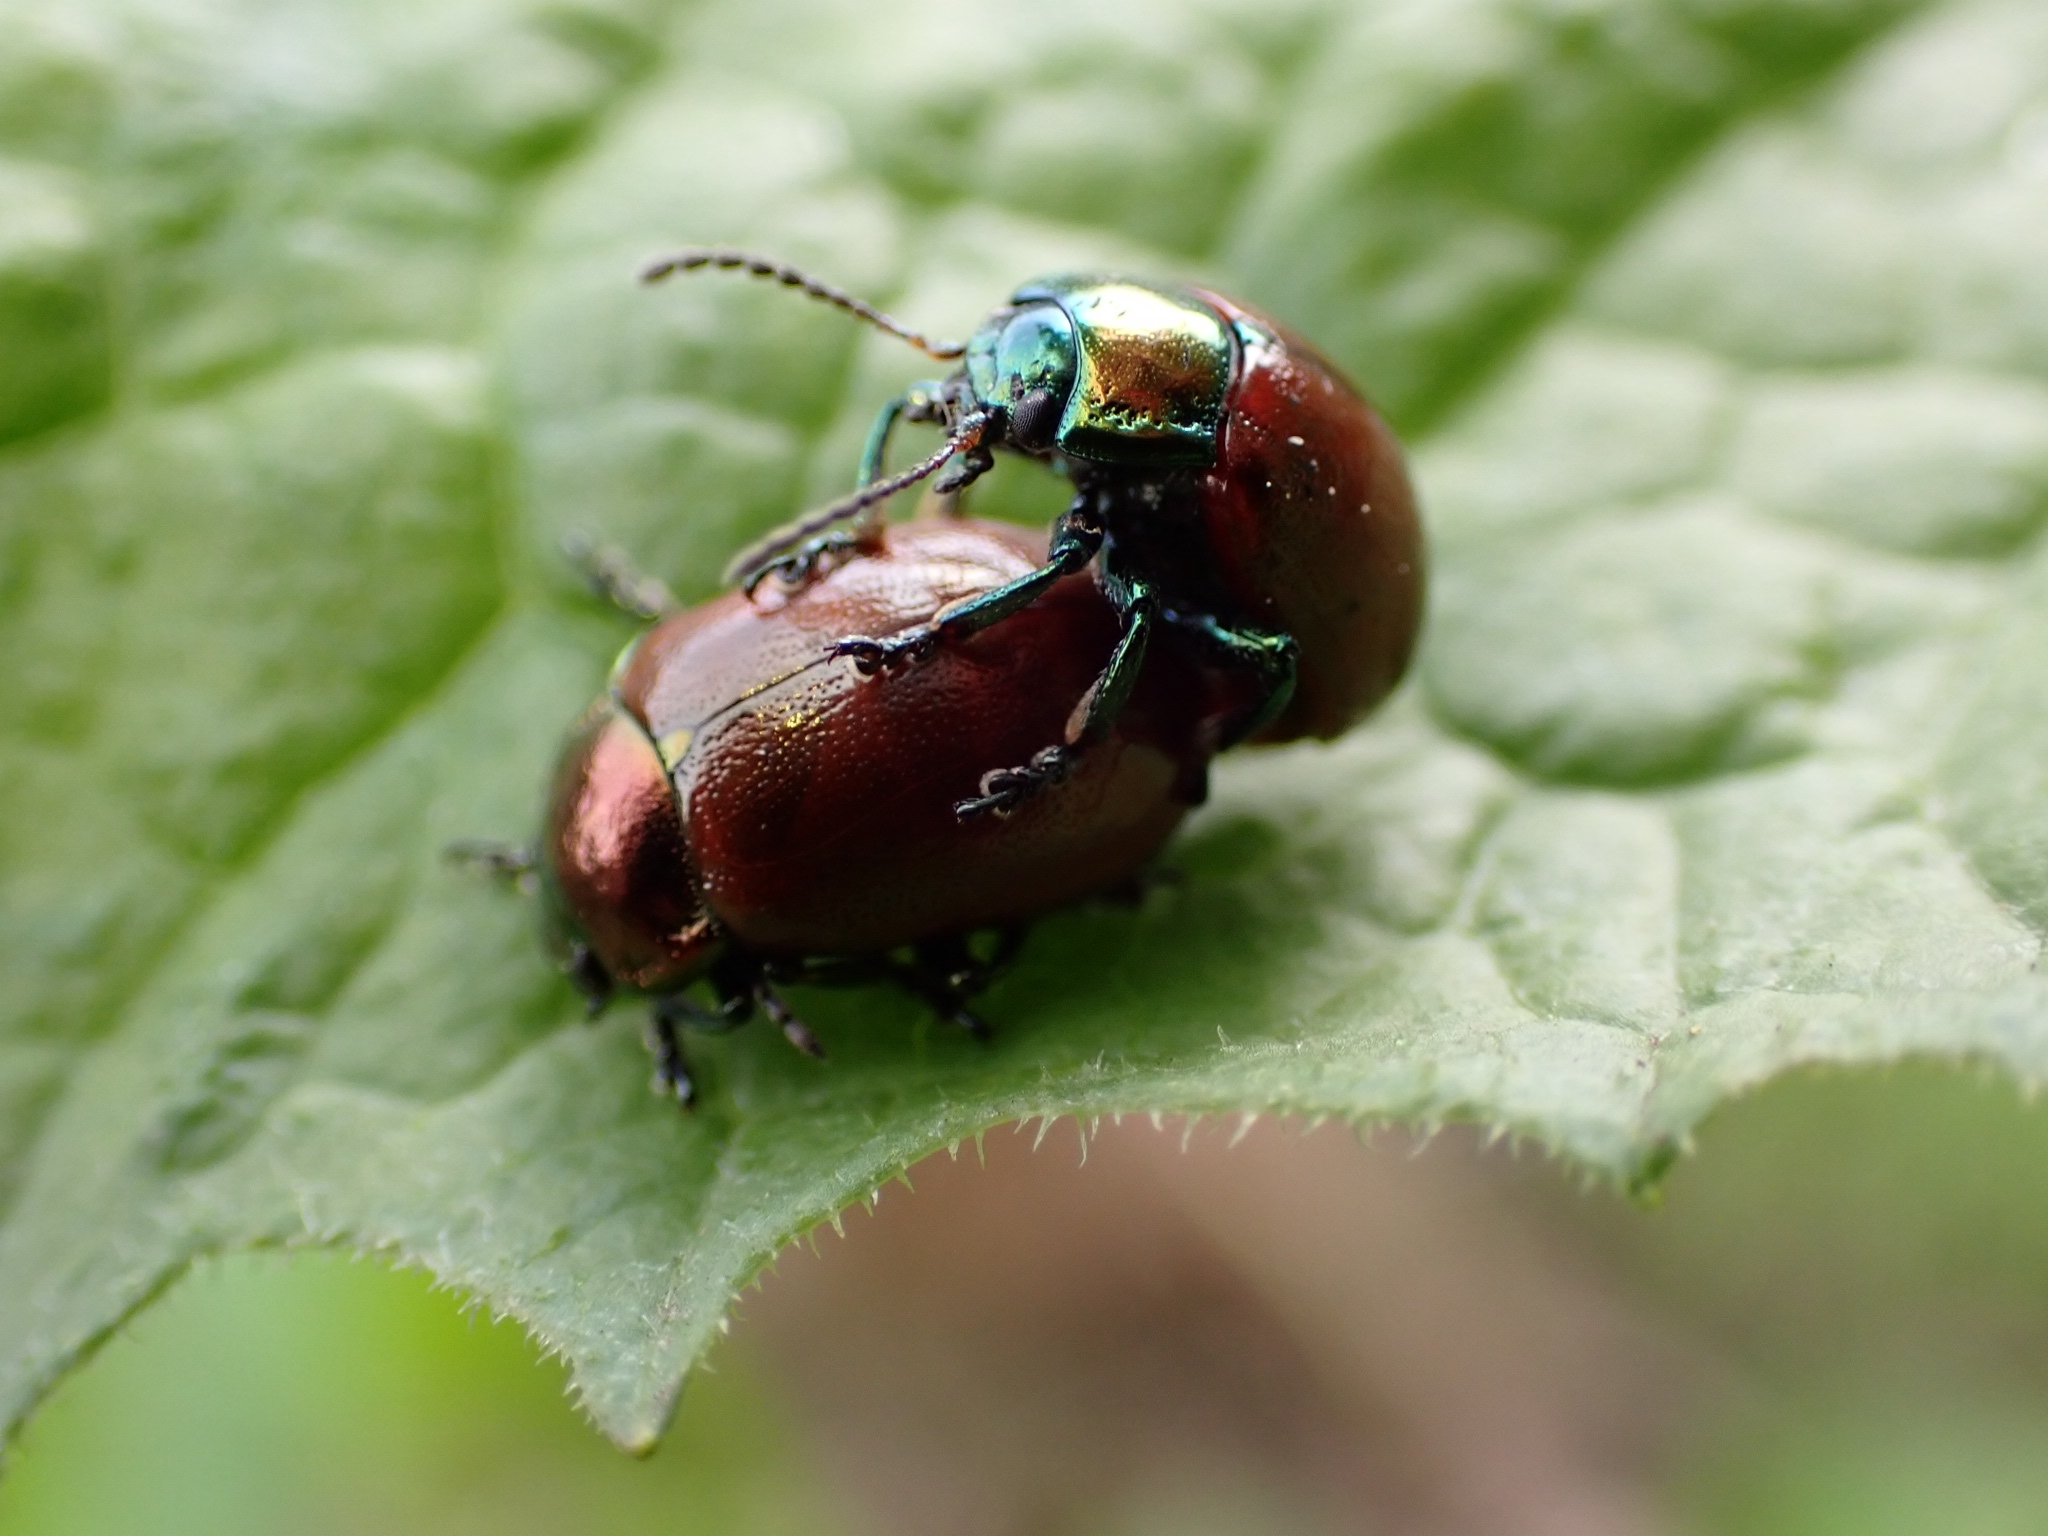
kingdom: Animalia
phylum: Arthropoda
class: Insecta
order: Coleoptera
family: Chrysomelidae
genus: Chrysomela
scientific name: Chrysomela polita
